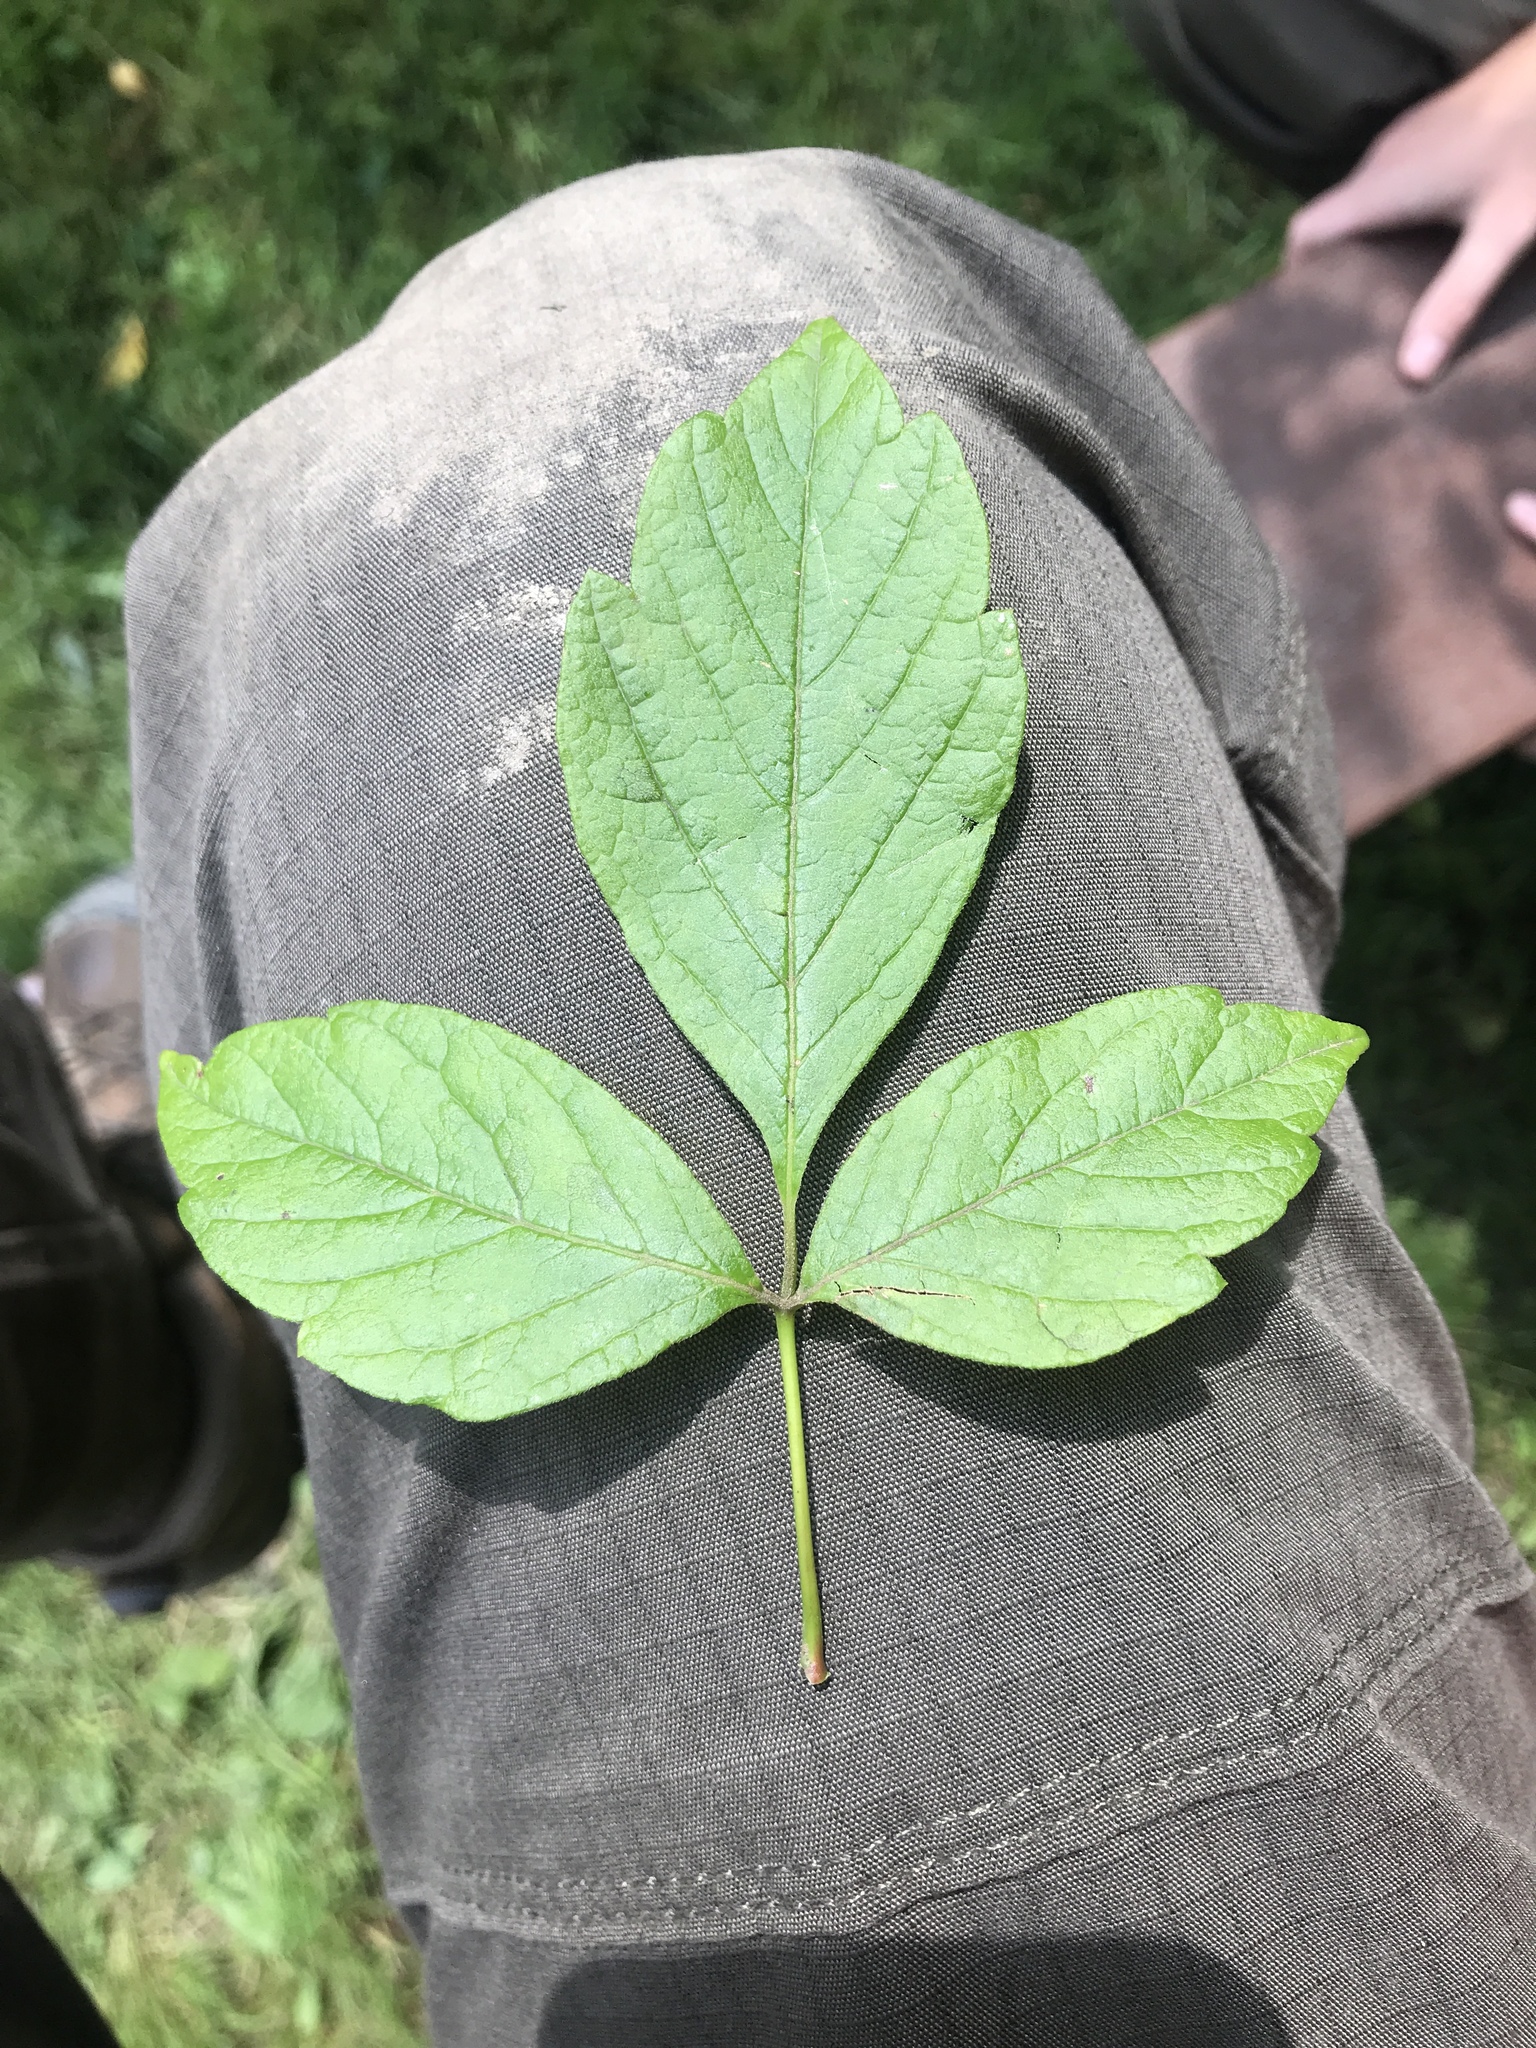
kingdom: Plantae
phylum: Tracheophyta
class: Magnoliopsida
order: Sapindales
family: Sapindaceae
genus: Acer
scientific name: Acer negundo
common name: Ashleaf maple
